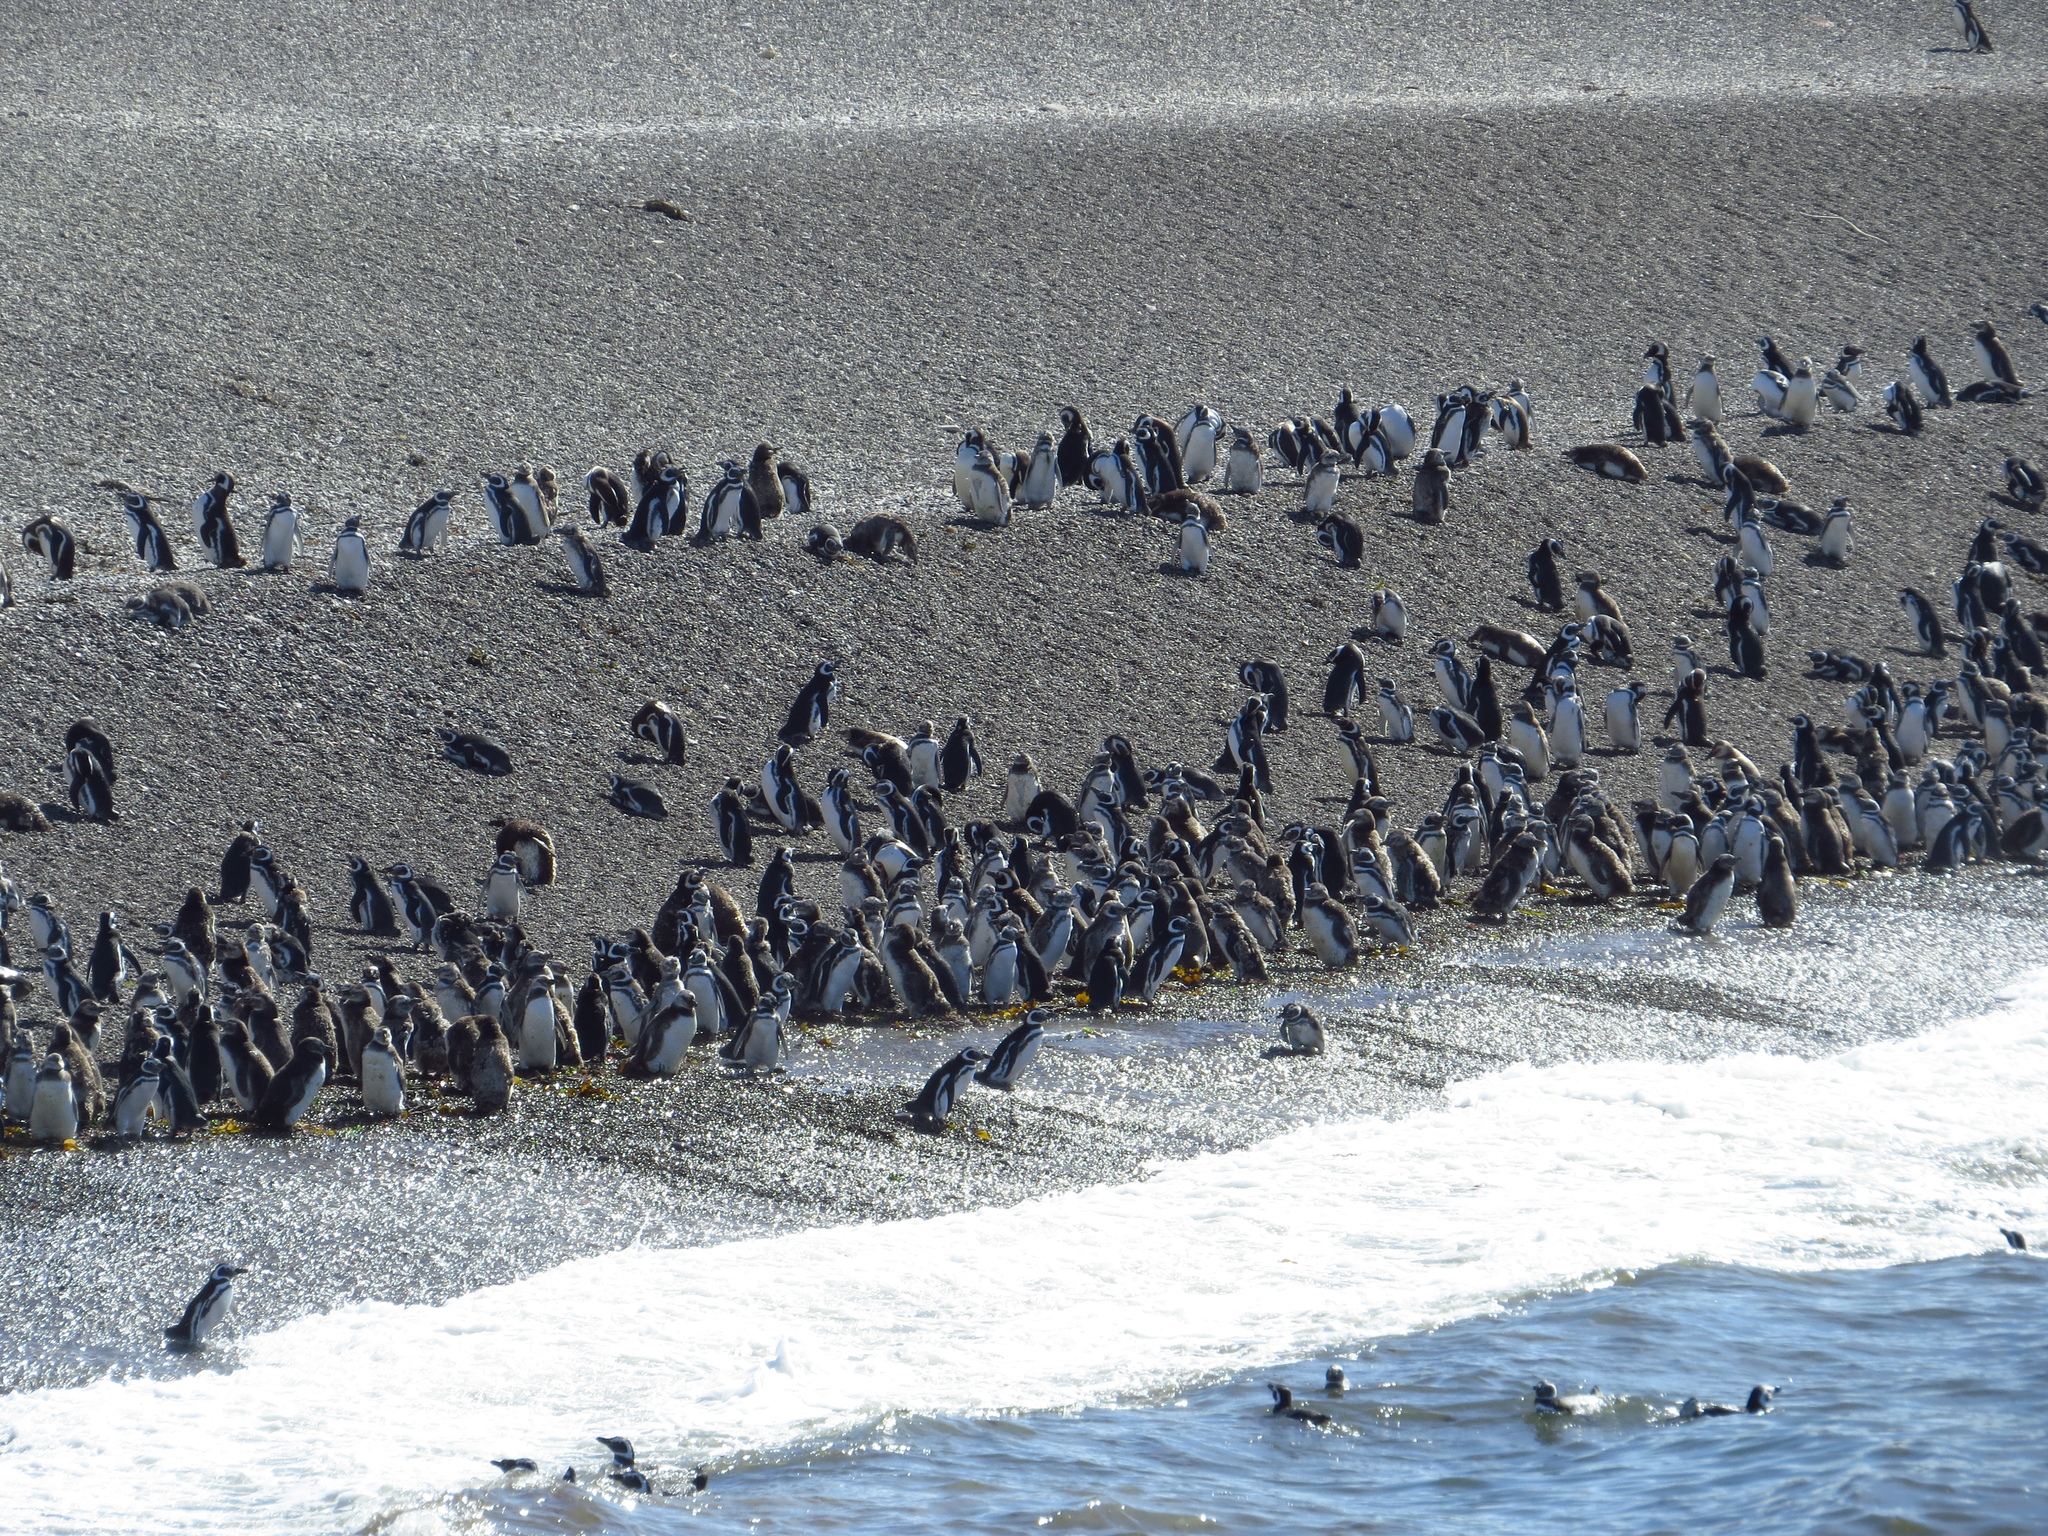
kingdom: Animalia
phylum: Chordata
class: Aves
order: Sphenisciformes
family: Spheniscidae
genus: Spheniscus
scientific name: Spheniscus magellanicus
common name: Magellanic penguin
